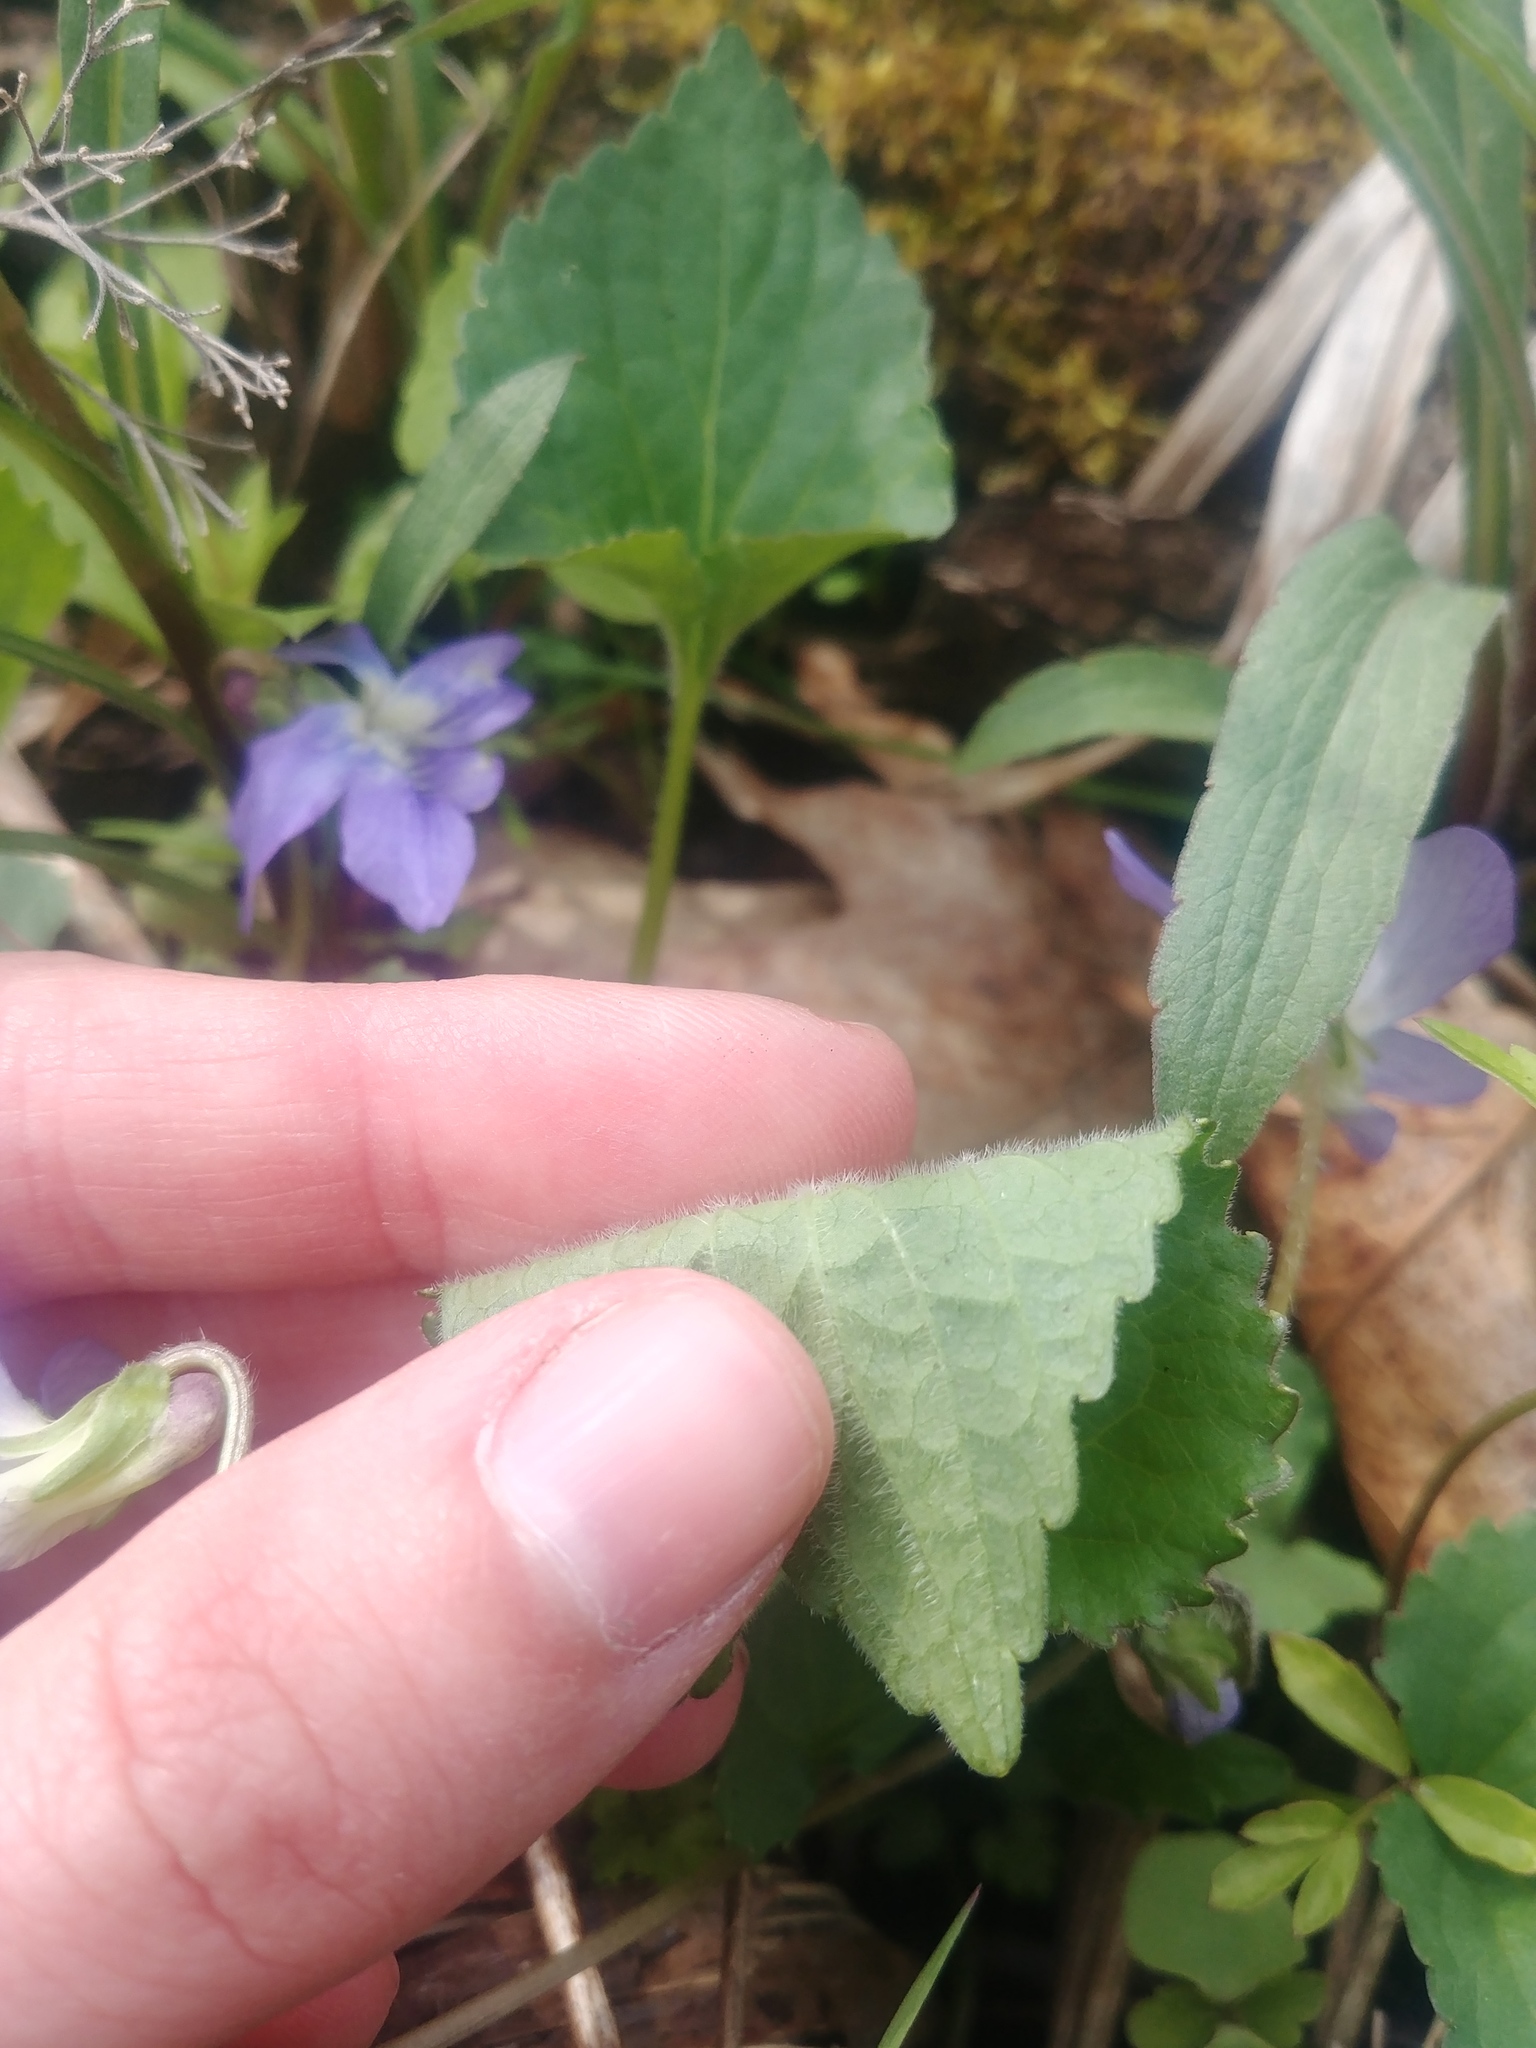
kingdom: Plantae
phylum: Tracheophyta
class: Magnoliopsida
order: Malpighiales
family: Violaceae
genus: Viola
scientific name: Viola sororia
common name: Dooryard violet
